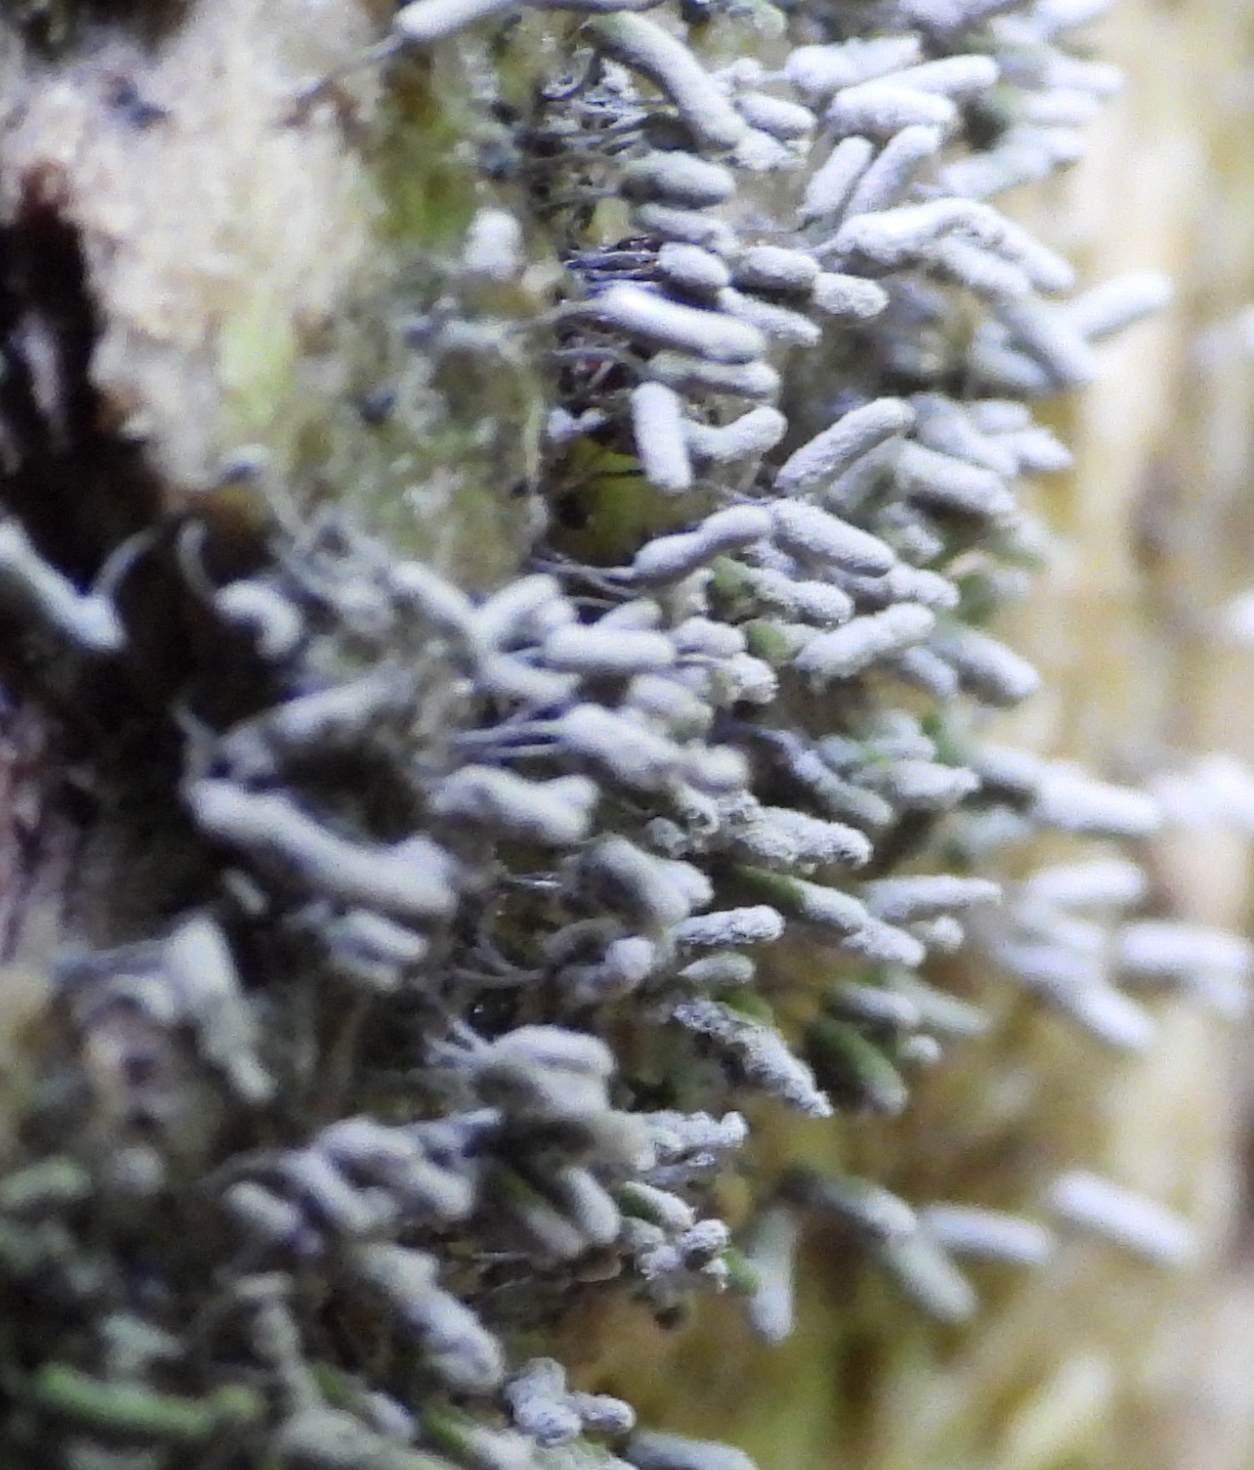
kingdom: Protozoa
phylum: Mycetozoa
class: Myxomycetes
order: Trichiales
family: Arcyriaceae
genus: Arcyria
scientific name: Arcyria cinerea
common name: White carnival candy slime mold
